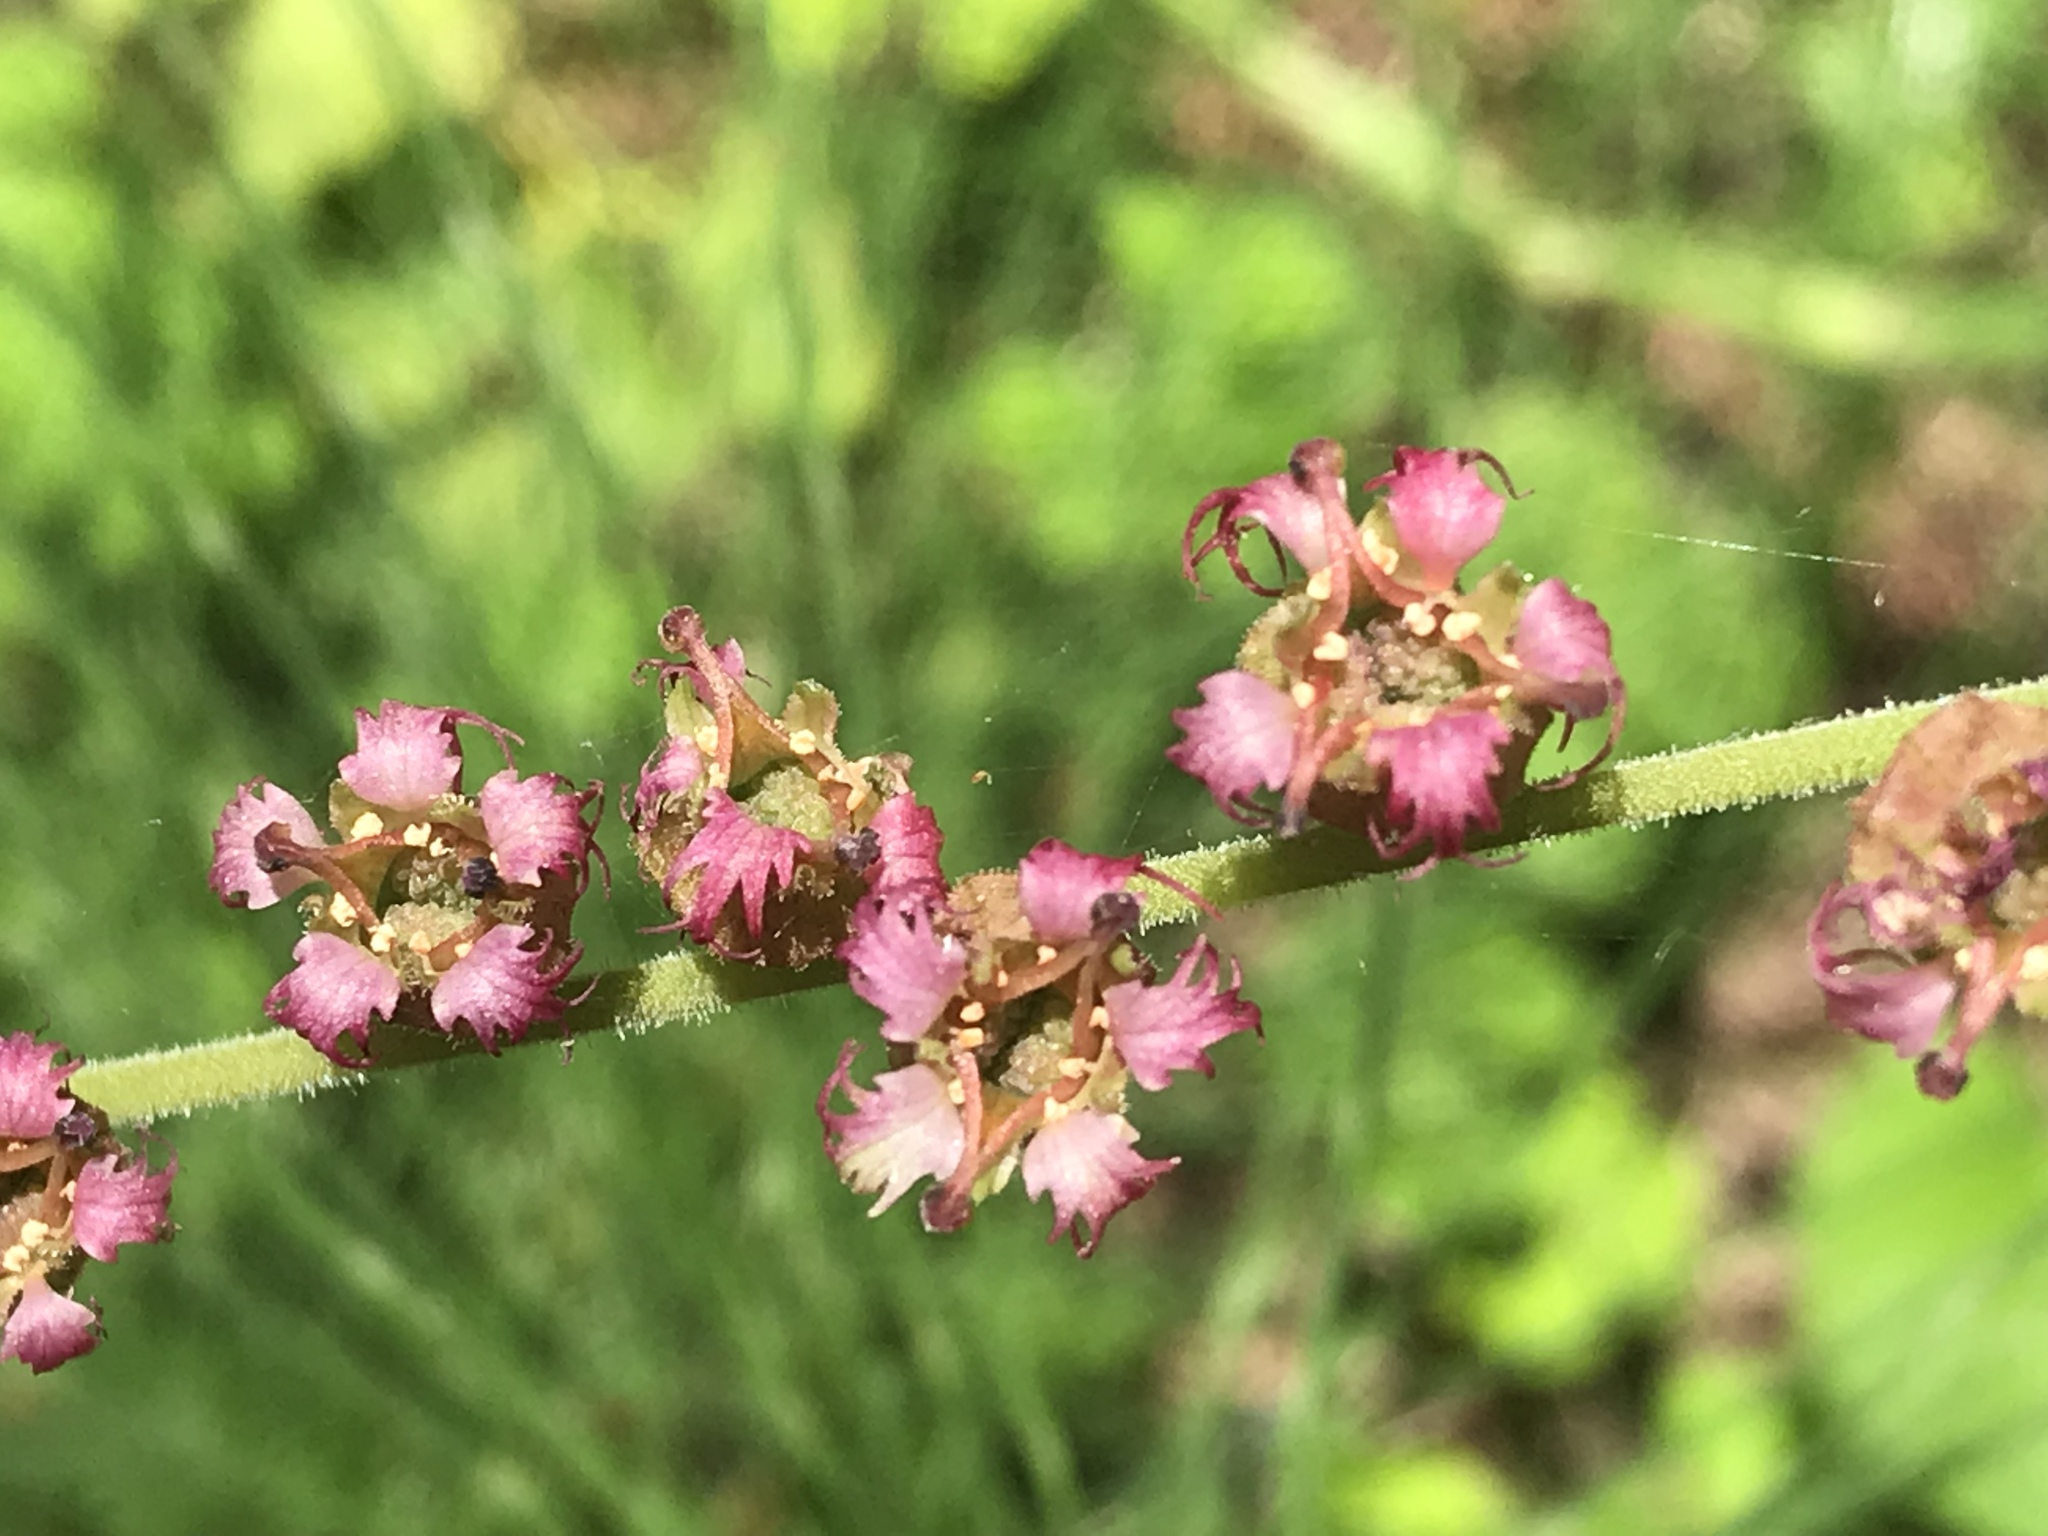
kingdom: Plantae
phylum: Tracheophyta
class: Magnoliopsida
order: Saxifragales
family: Saxifragaceae
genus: Tellima
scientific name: Tellima grandiflora
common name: Fringecups
